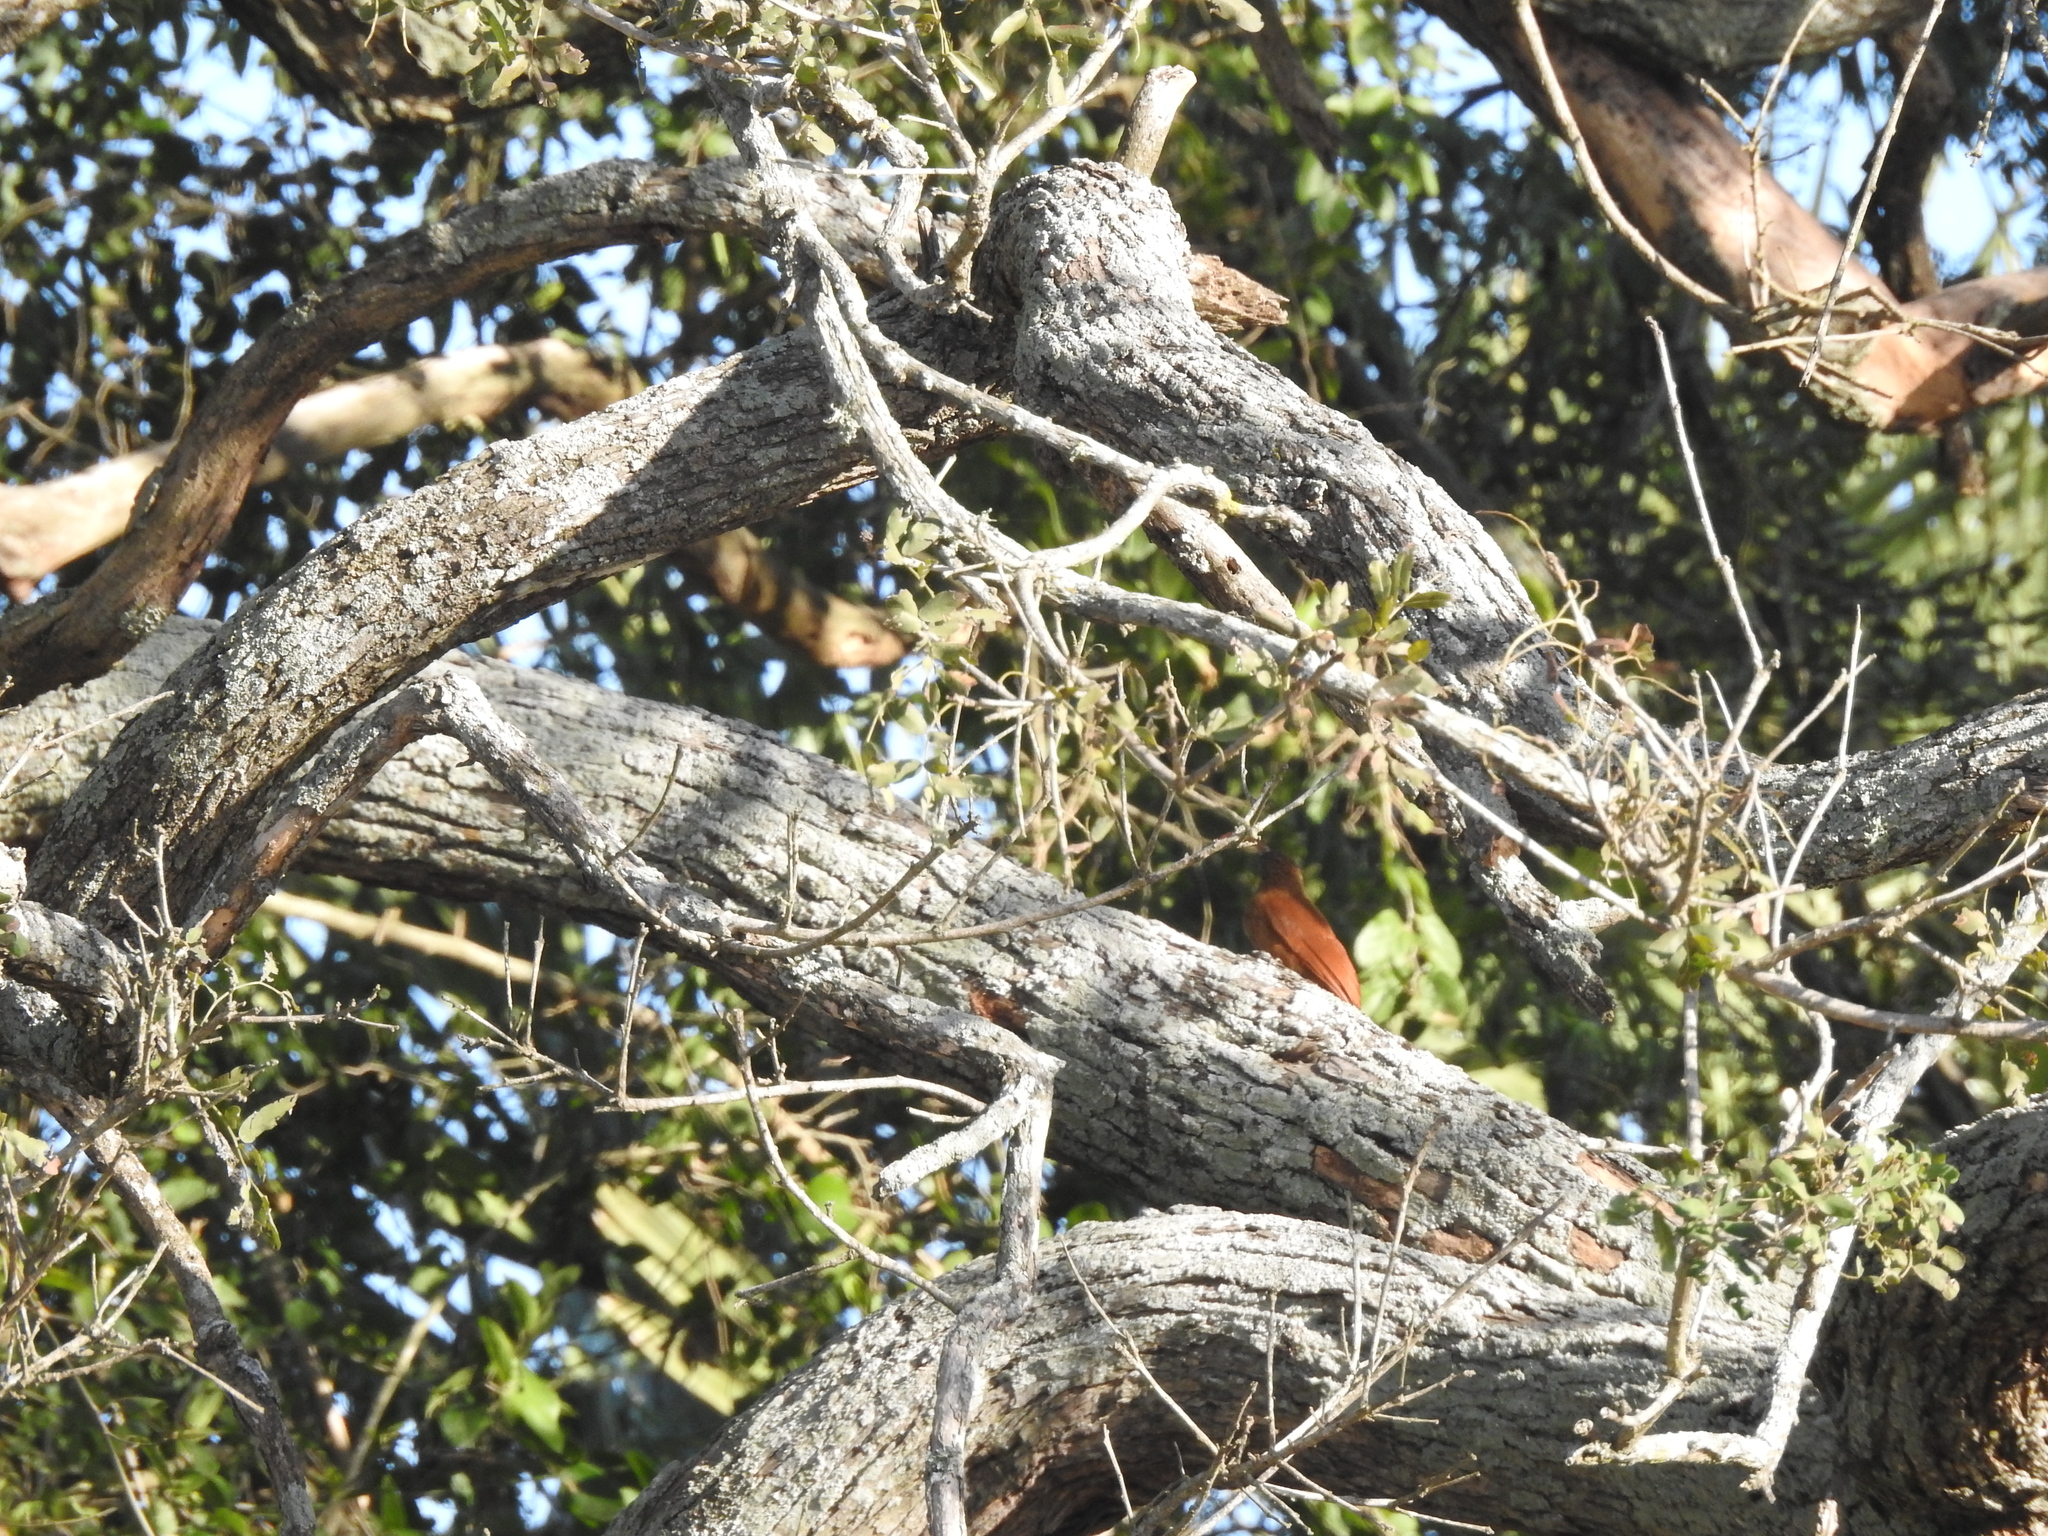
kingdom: Animalia
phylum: Chordata
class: Aves
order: Passeriformes
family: Furnariidae
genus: Campylorhamphus
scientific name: Campylorhamphus trochilirostris
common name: Red-billed scythebill
